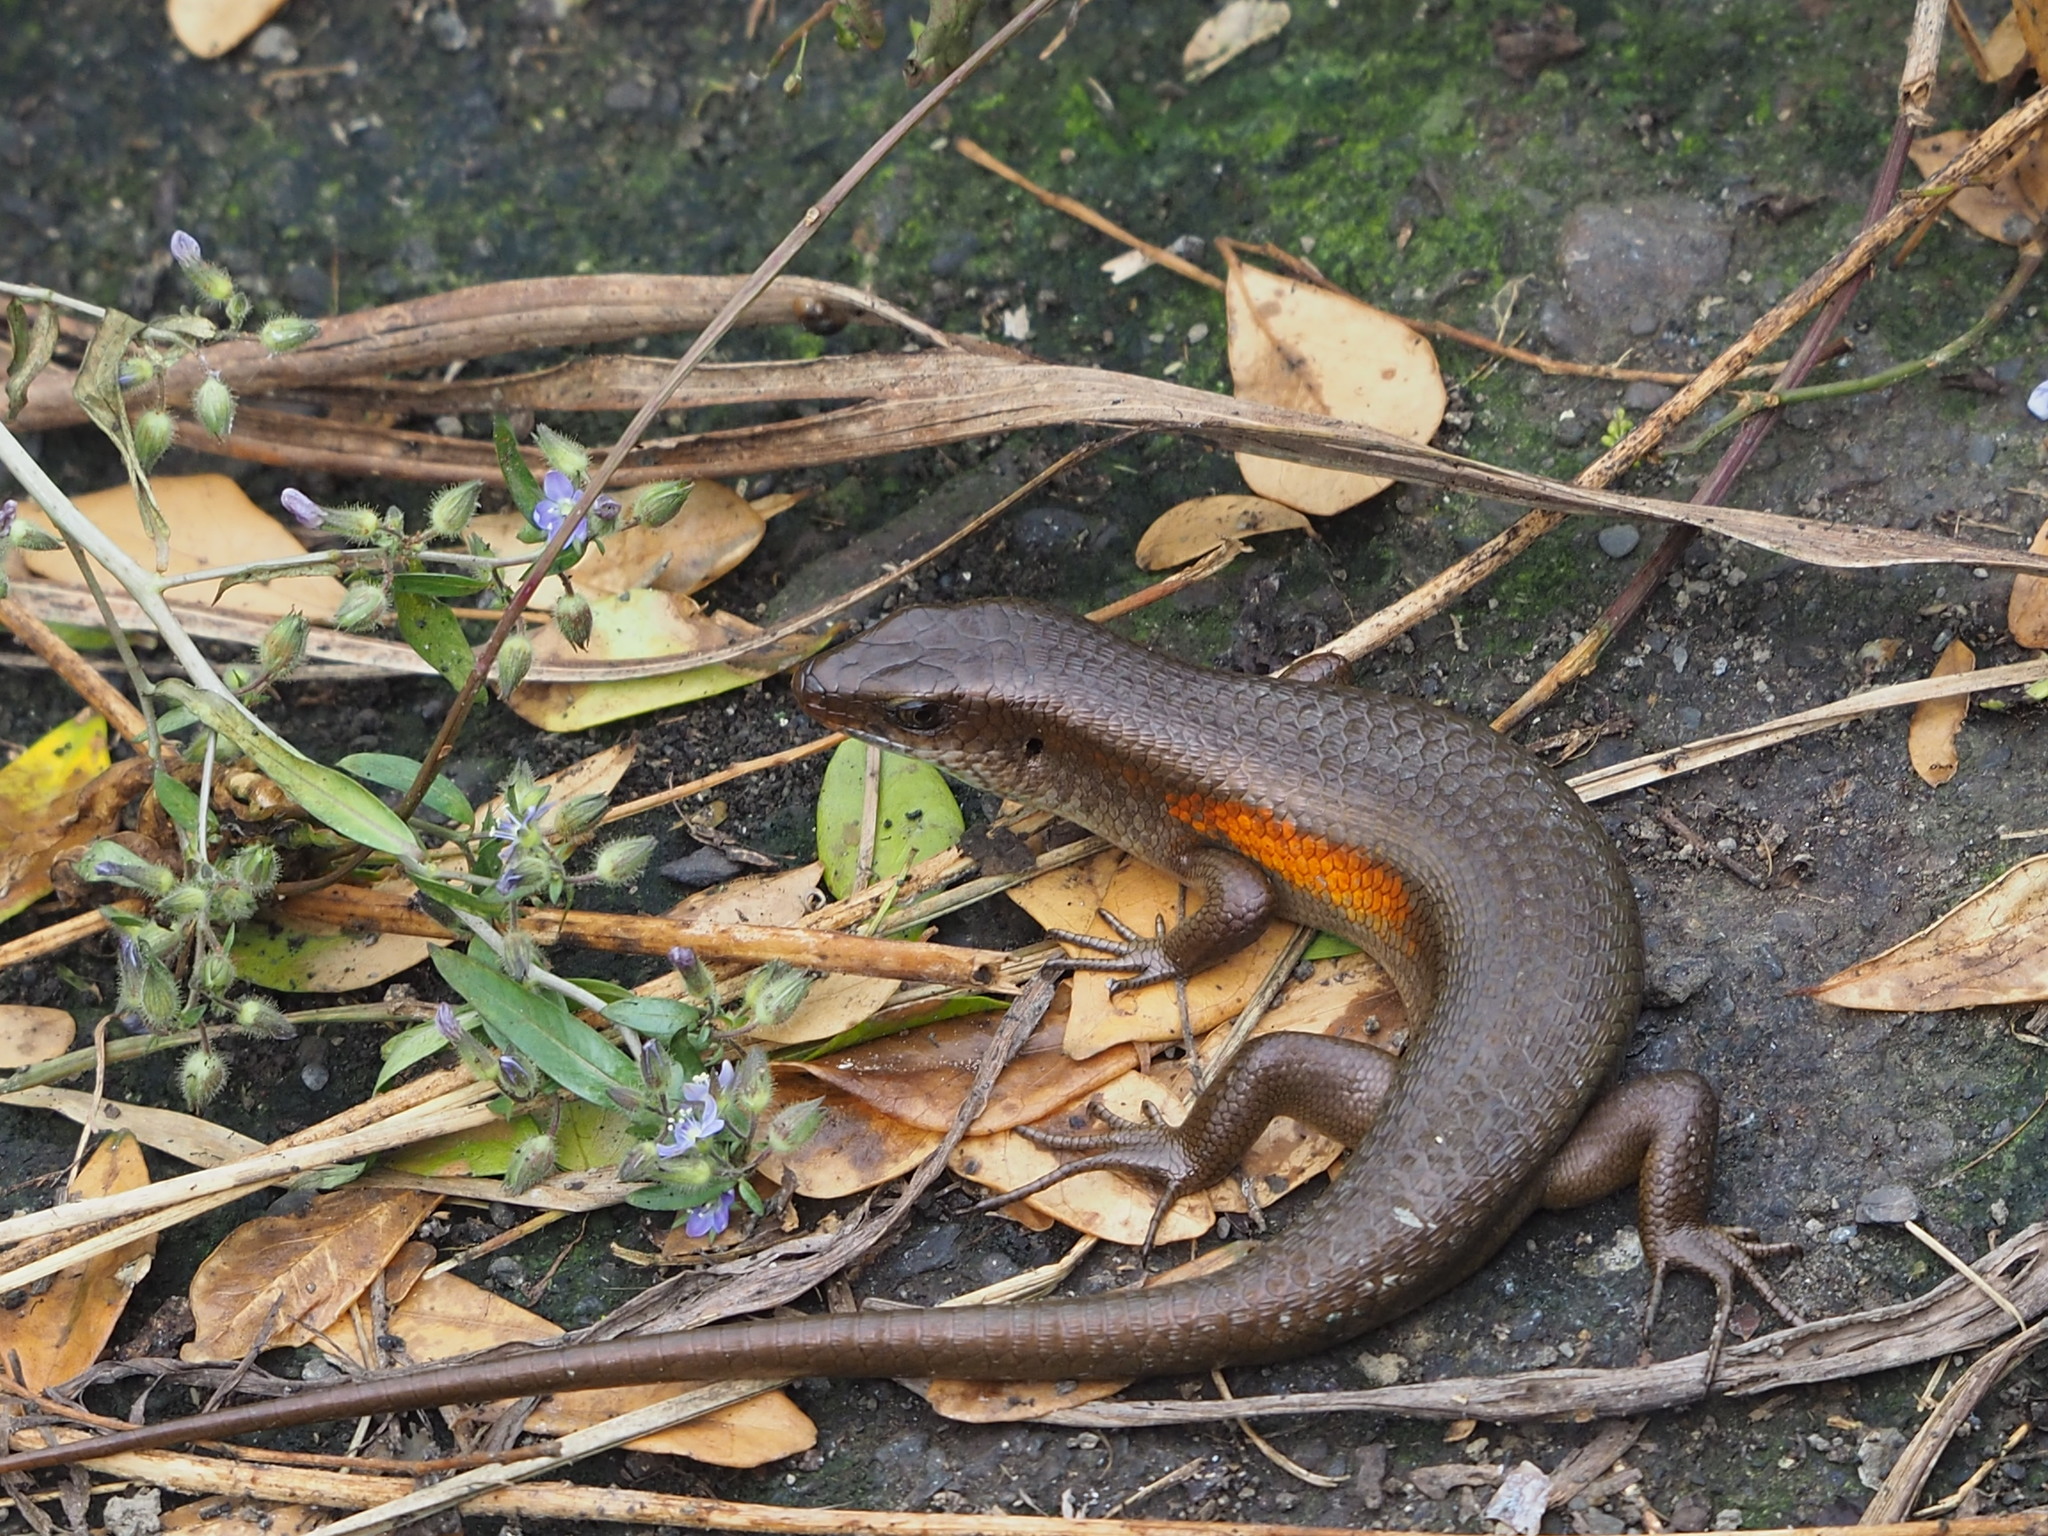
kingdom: Animalia
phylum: Chordata
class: Squamata
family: Scincidae
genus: Eutropis
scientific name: Eutropis multifasciata
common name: Common mabuya
